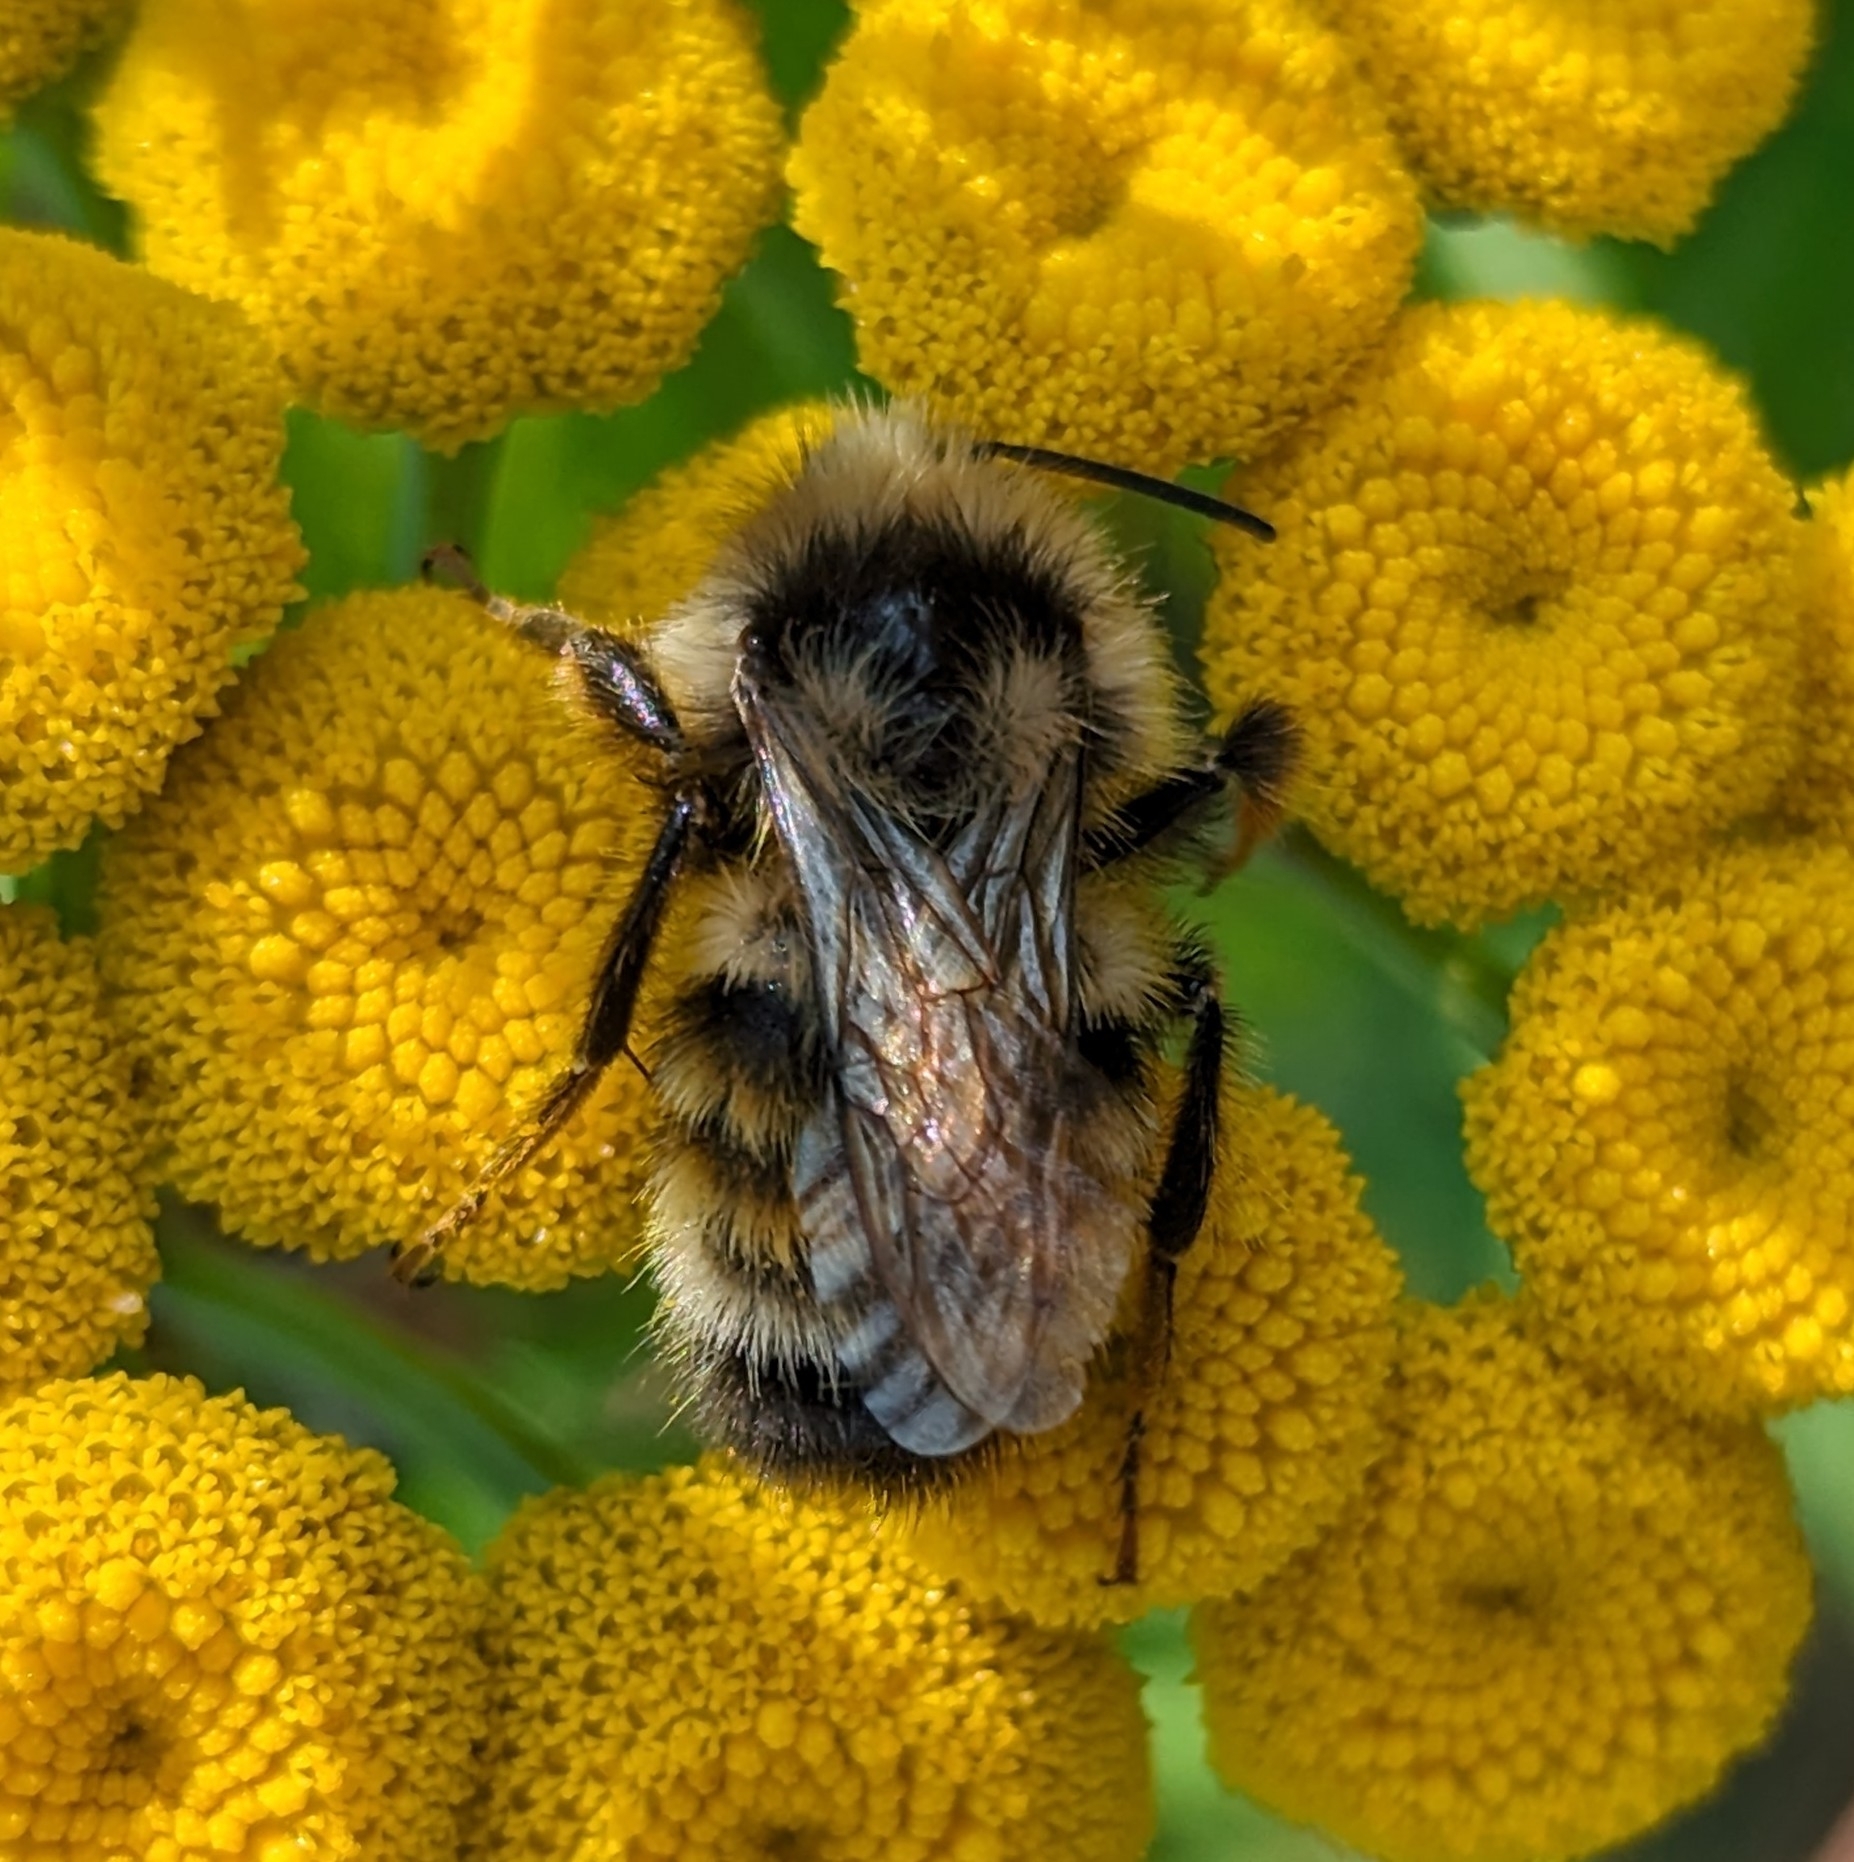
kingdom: Animalia
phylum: Arthropoda
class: Insecta
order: Hymenoptera
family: Apidae
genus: Bombus
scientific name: Bombus vancouverensis
